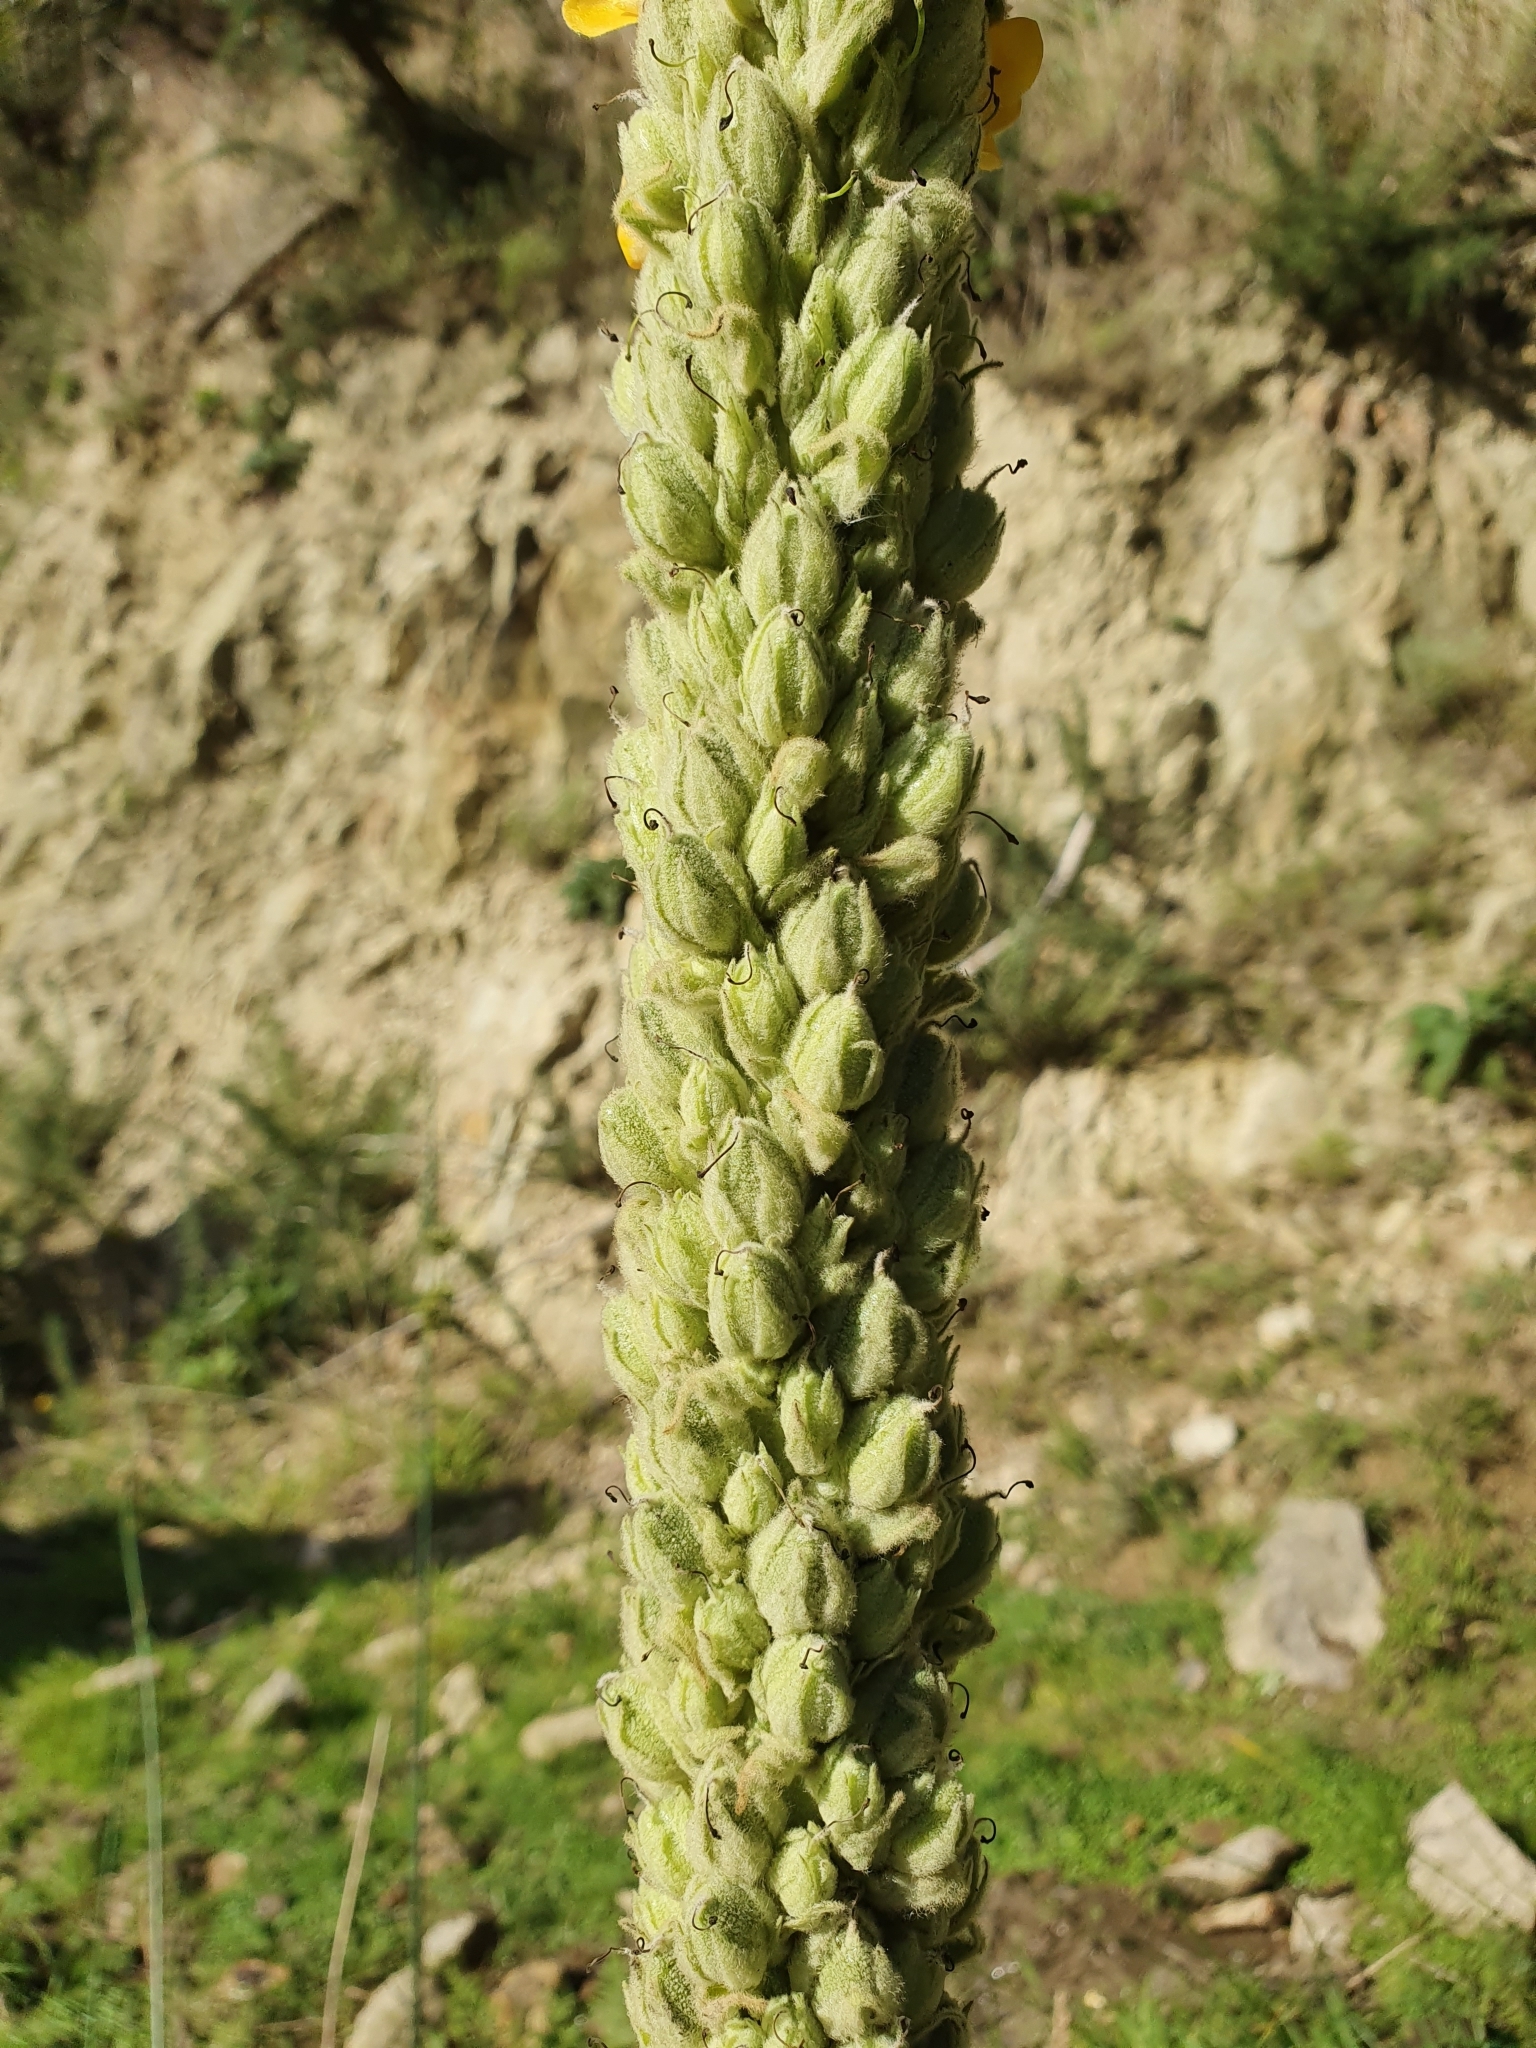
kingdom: Plantae
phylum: Tracheophyta
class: Magnoliopsida
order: Lamiales
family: Scrophulariaceae
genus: Verbascum
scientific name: Verbascum thapsus
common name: Common mullein
